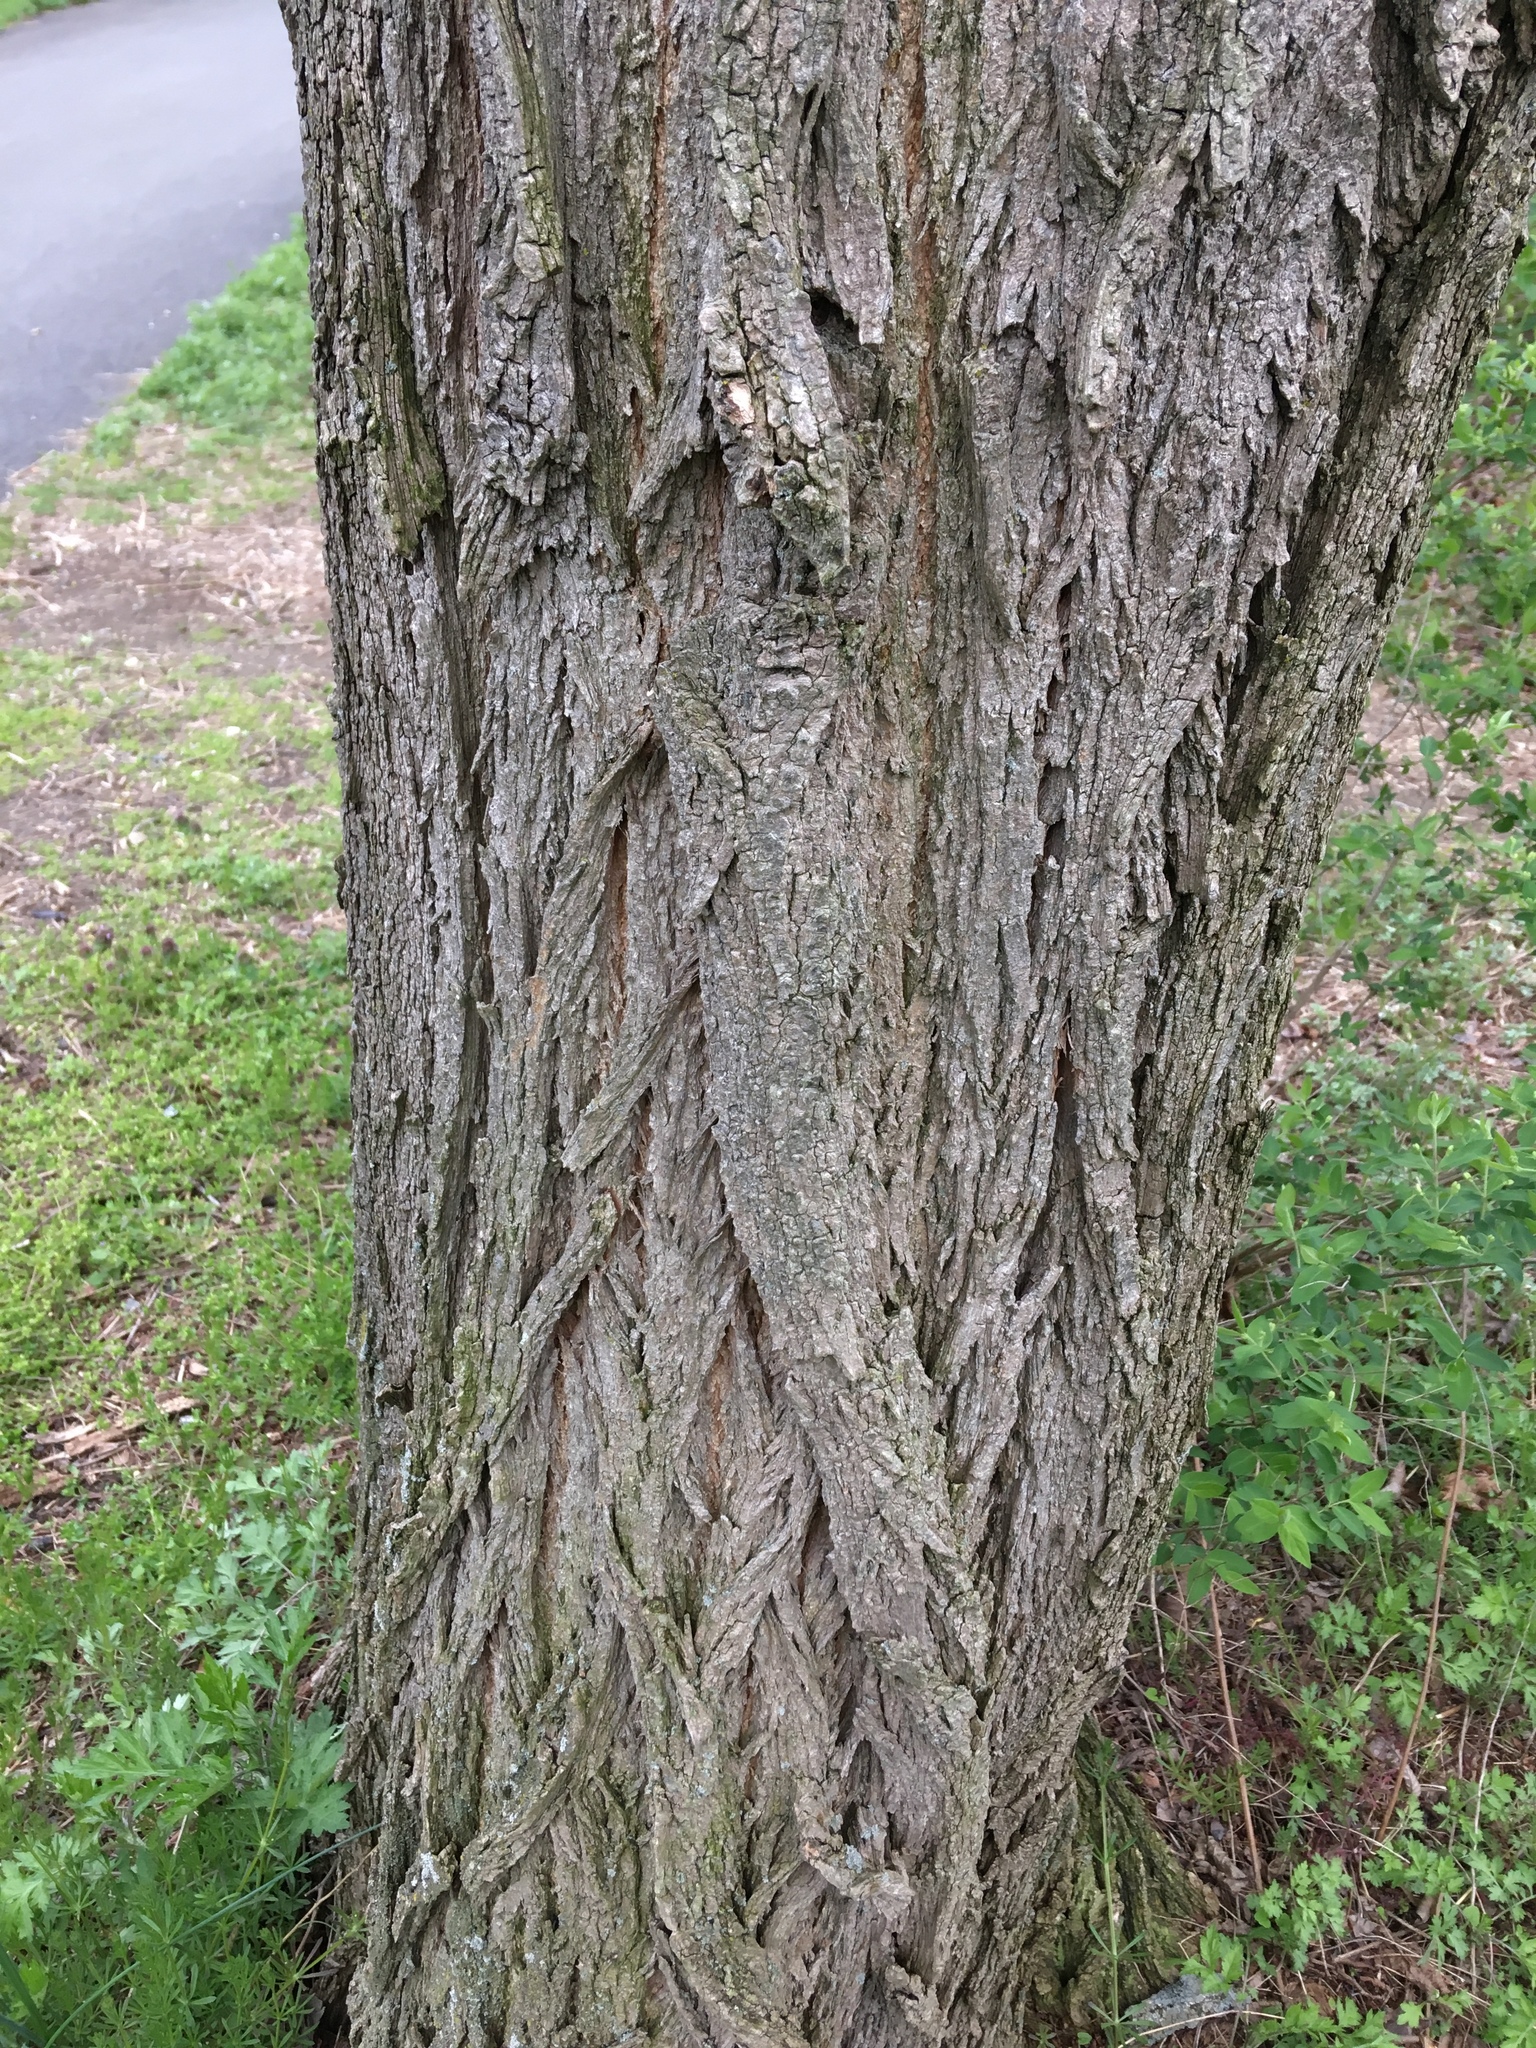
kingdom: Plantae
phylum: Tracheophyta
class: Magnoliopsida
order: Fabales
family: Fabaceae
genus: Robinia
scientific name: Robinia pseudoacacia
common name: Black locust
